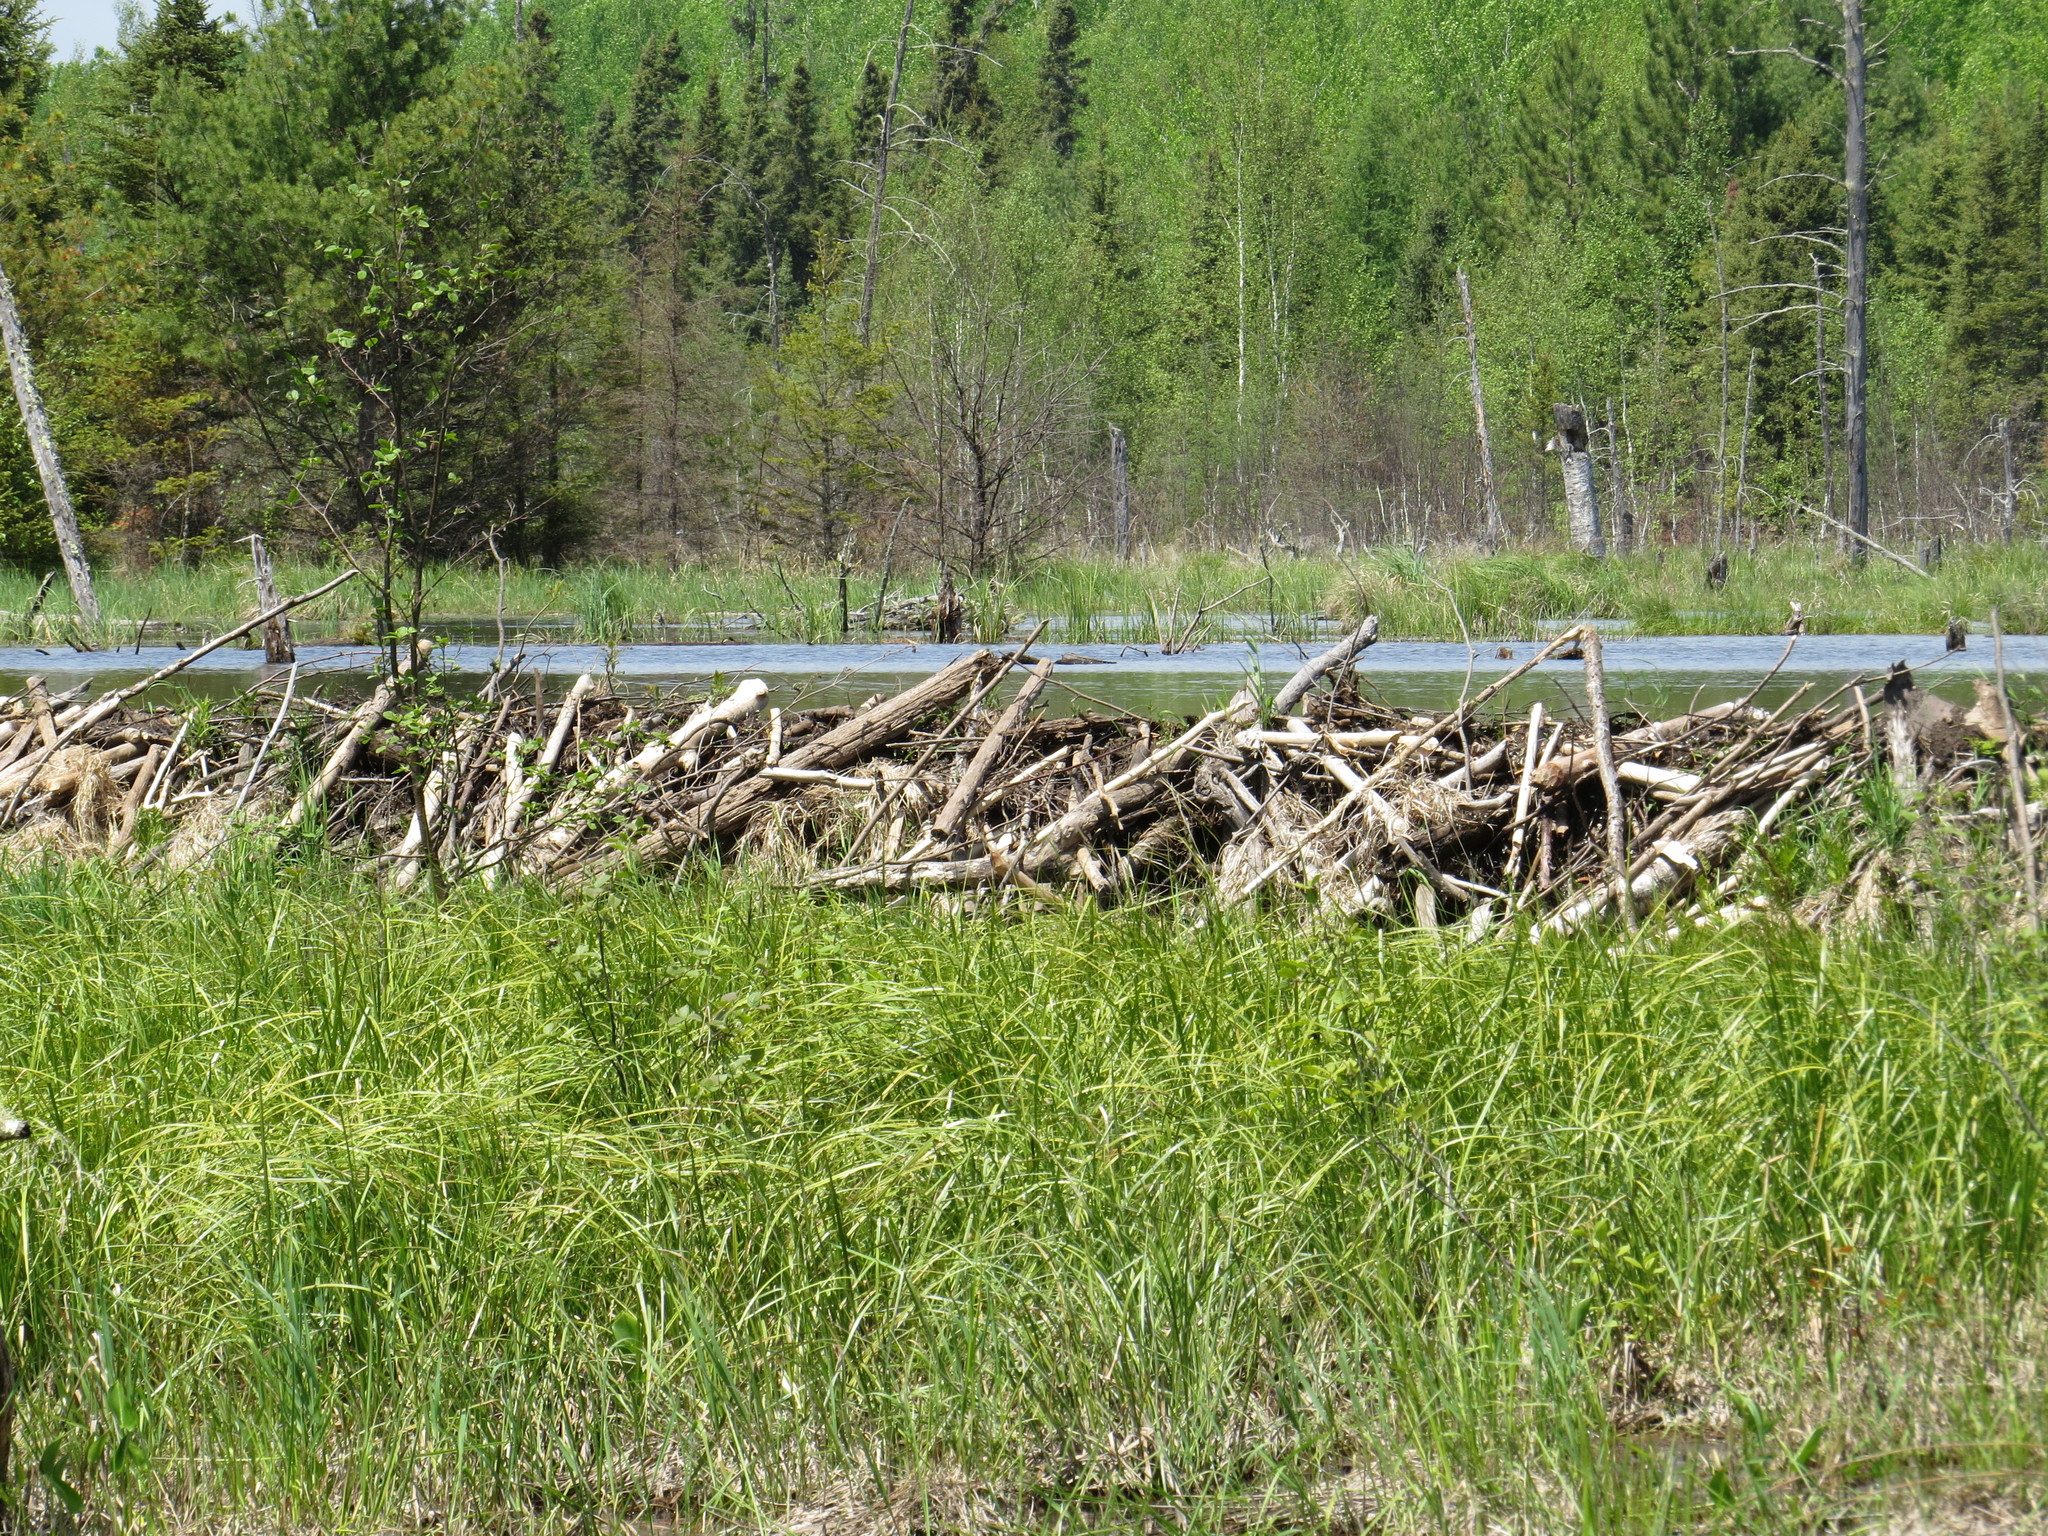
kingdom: Animalia
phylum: Chordata
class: Mammalia
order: Rodentia
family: Castoridae
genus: Castor
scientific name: Castor canadensis
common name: American beaver
